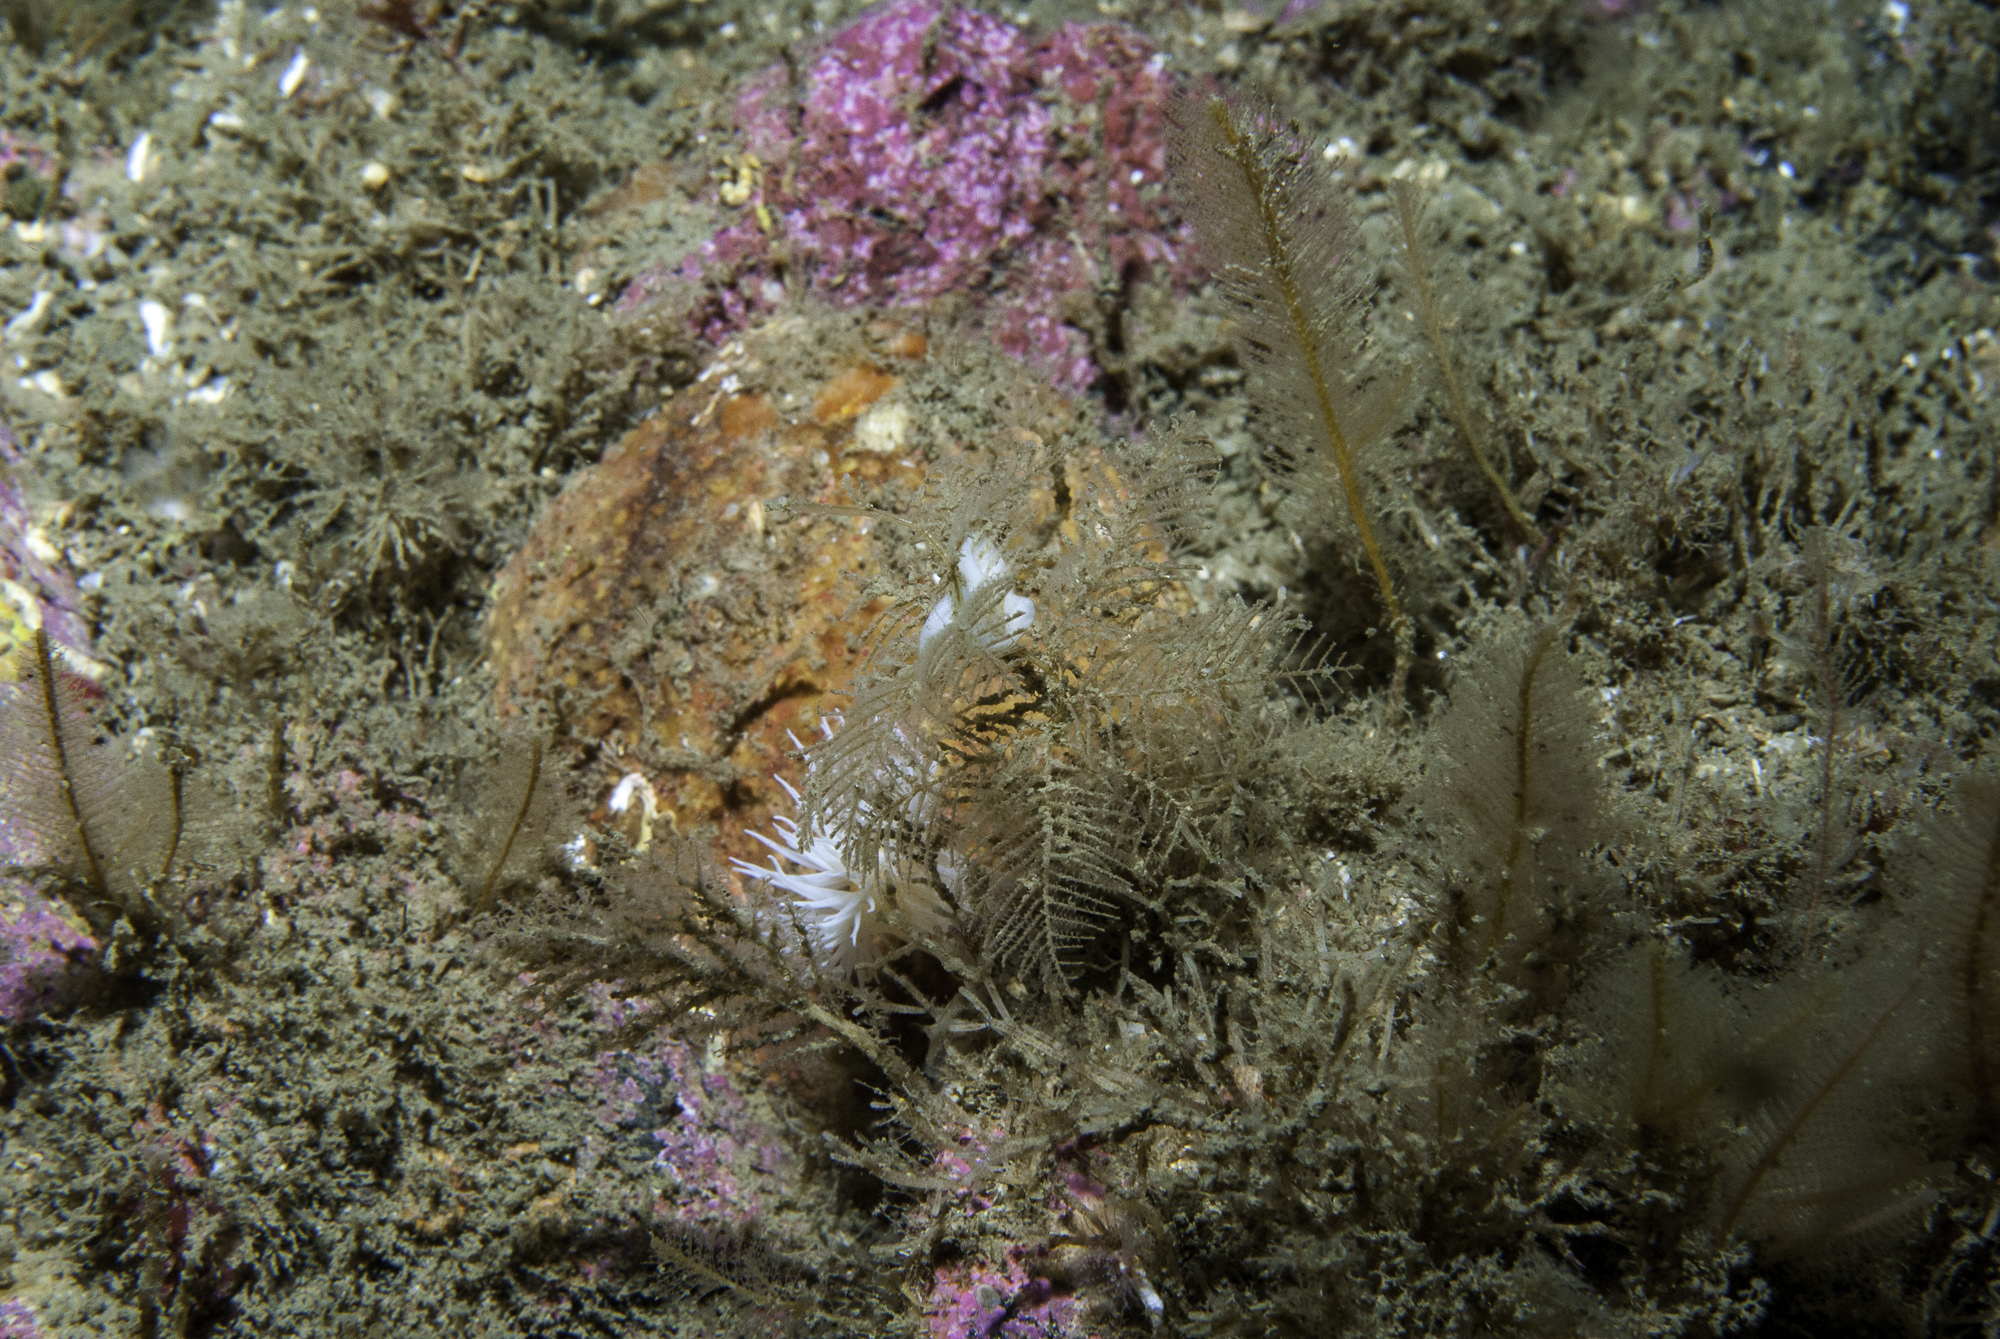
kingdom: Animalia
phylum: Cnidaria
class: Hydrozoa
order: Leptothecata
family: Sertulariidae
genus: Hydrallmania
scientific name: Hydrallmania falcata
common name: Sickle hydroid
